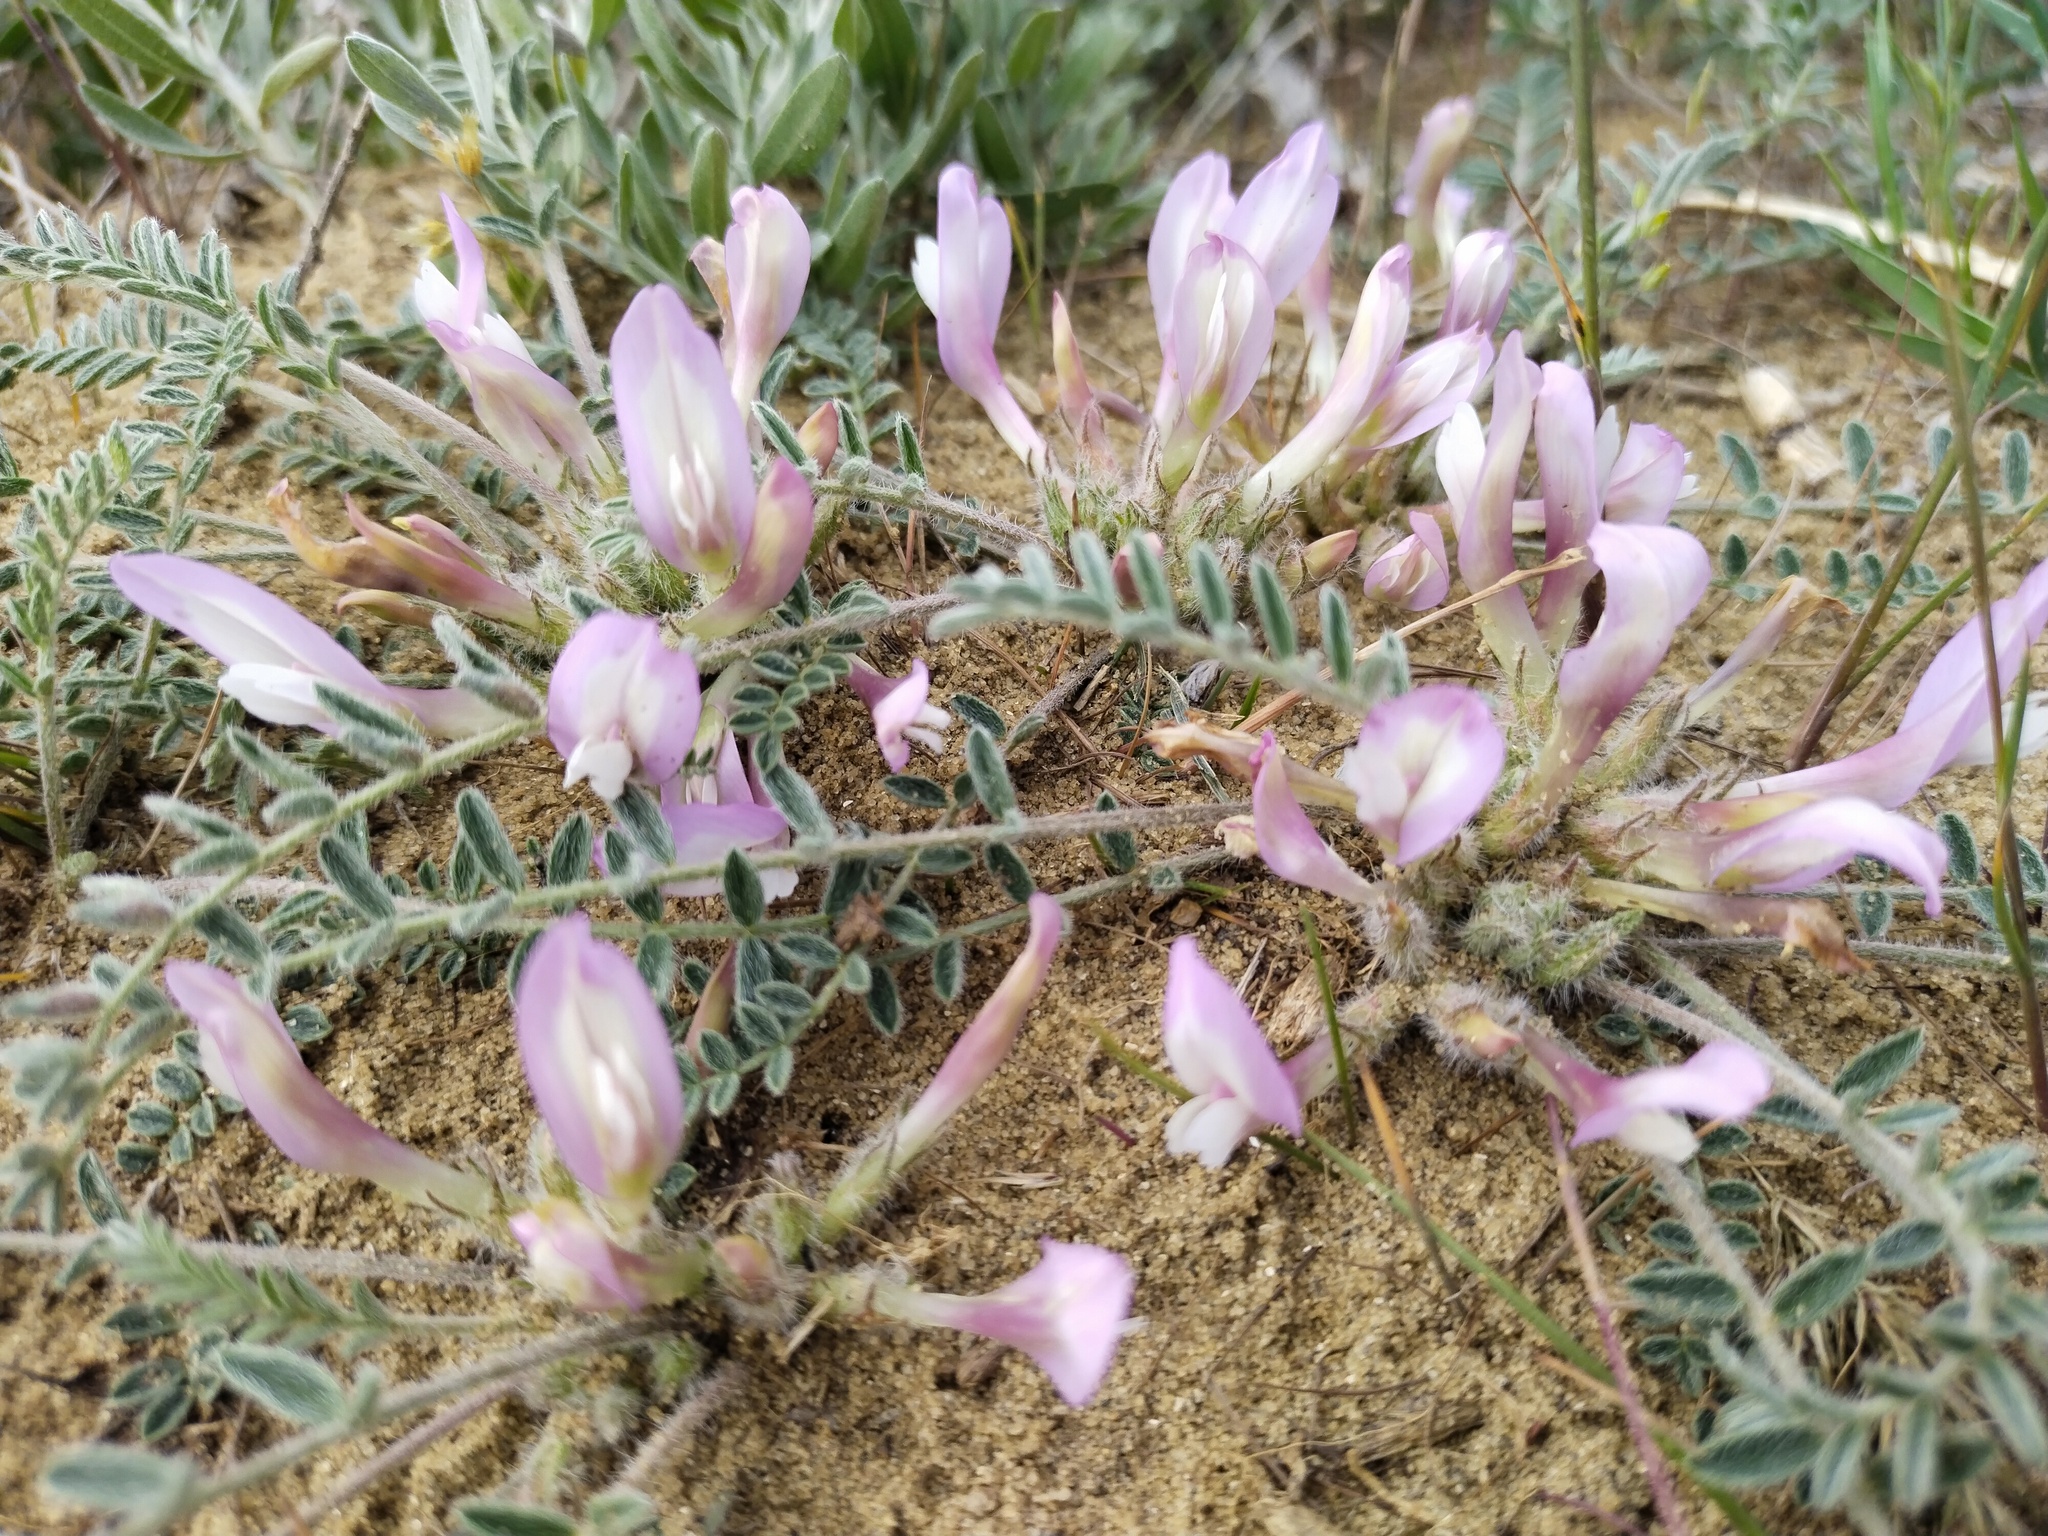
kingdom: Plantae
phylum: Tracheophyta
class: Magnoliopsida
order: Fabales
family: Fabaceae
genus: Astragalus
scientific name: Astragalus dolichophyllus
